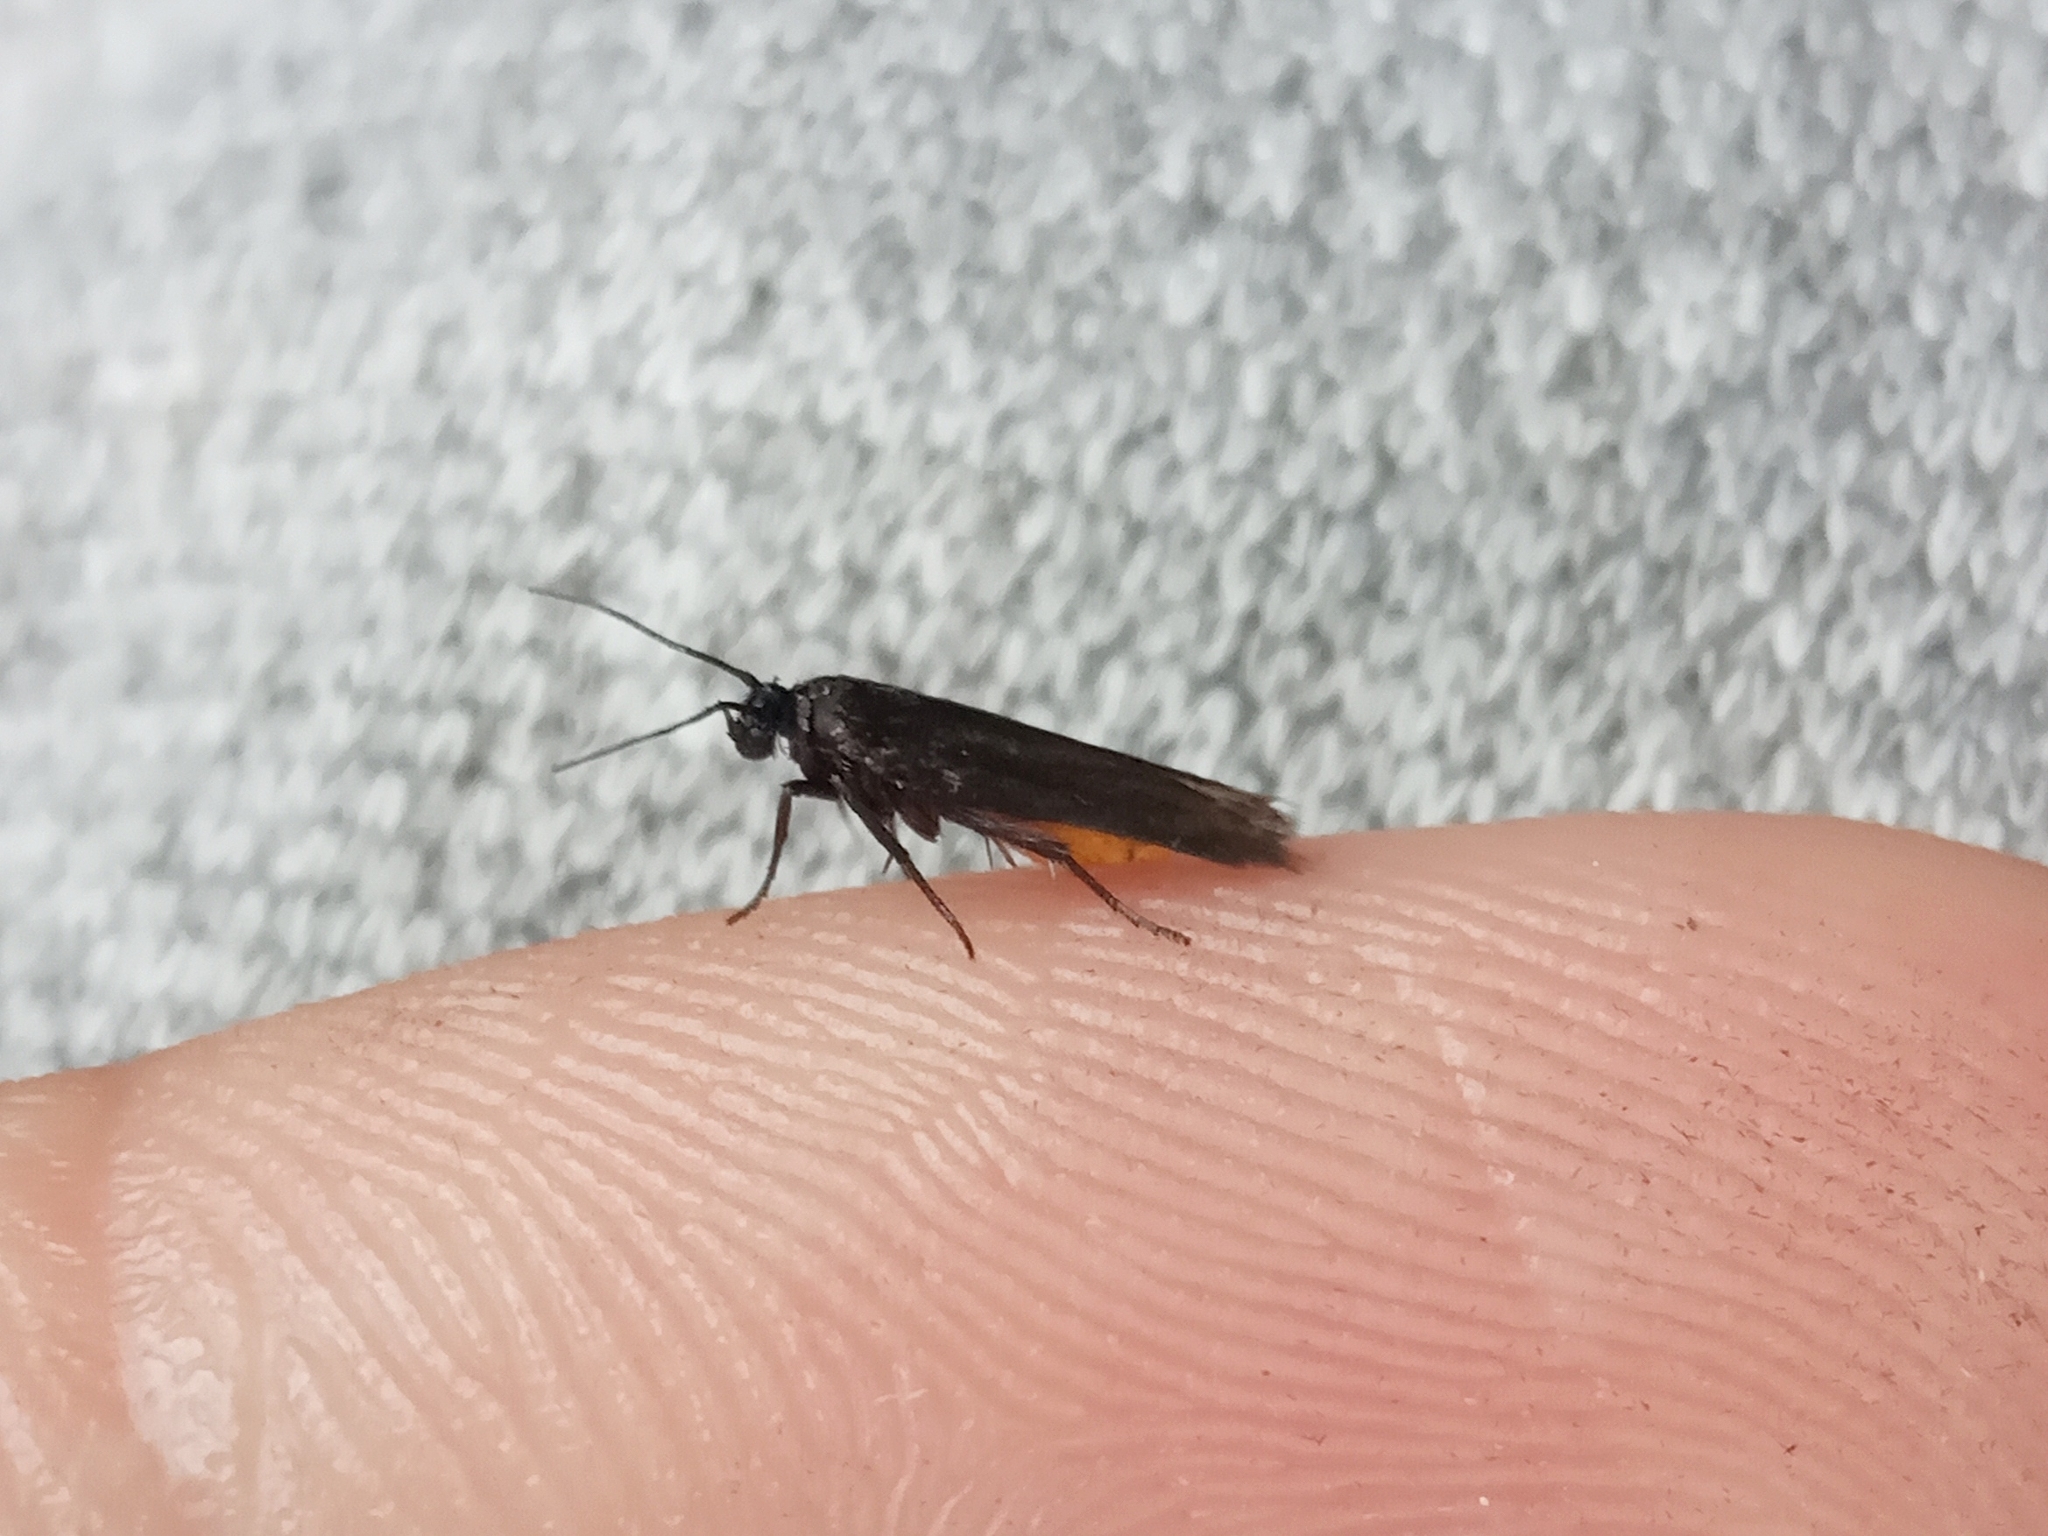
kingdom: Animalia
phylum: Arthropoda
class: Insecta
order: Lepidoptera
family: Scythrididae
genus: Scythris
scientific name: Scythris sinensis
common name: Kentish owlet
